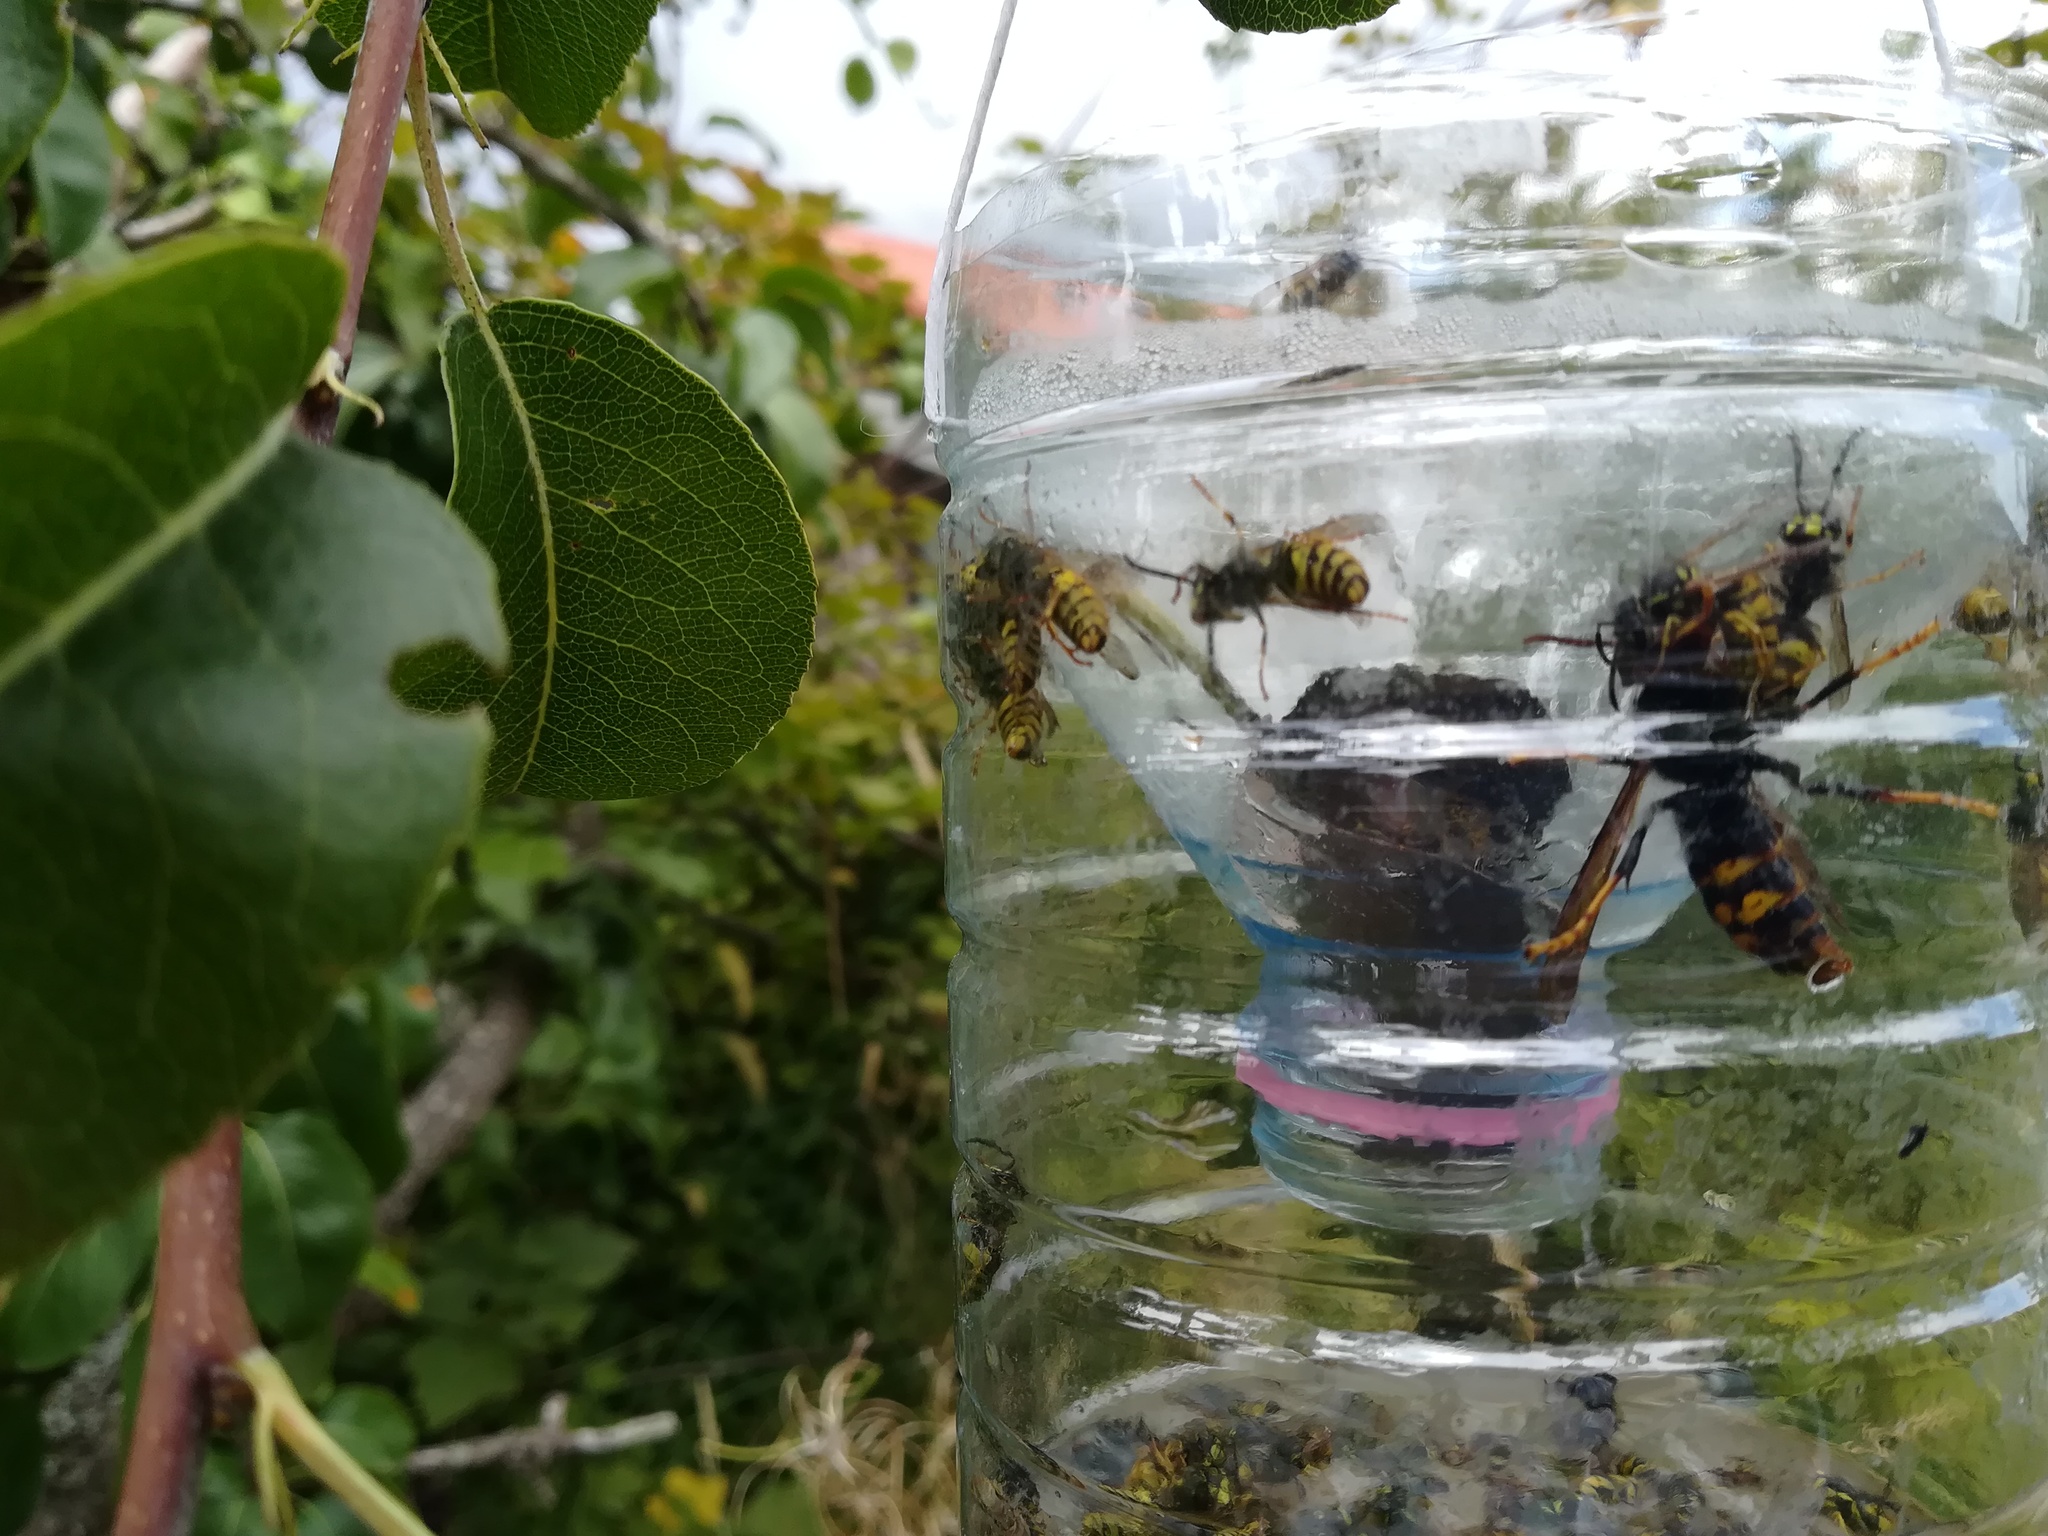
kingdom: Animalia
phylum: Arthropoda
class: Insecta
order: Hymenoptera
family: Vespidae
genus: Vespa
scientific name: Vespa velutina
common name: Asian hornet
